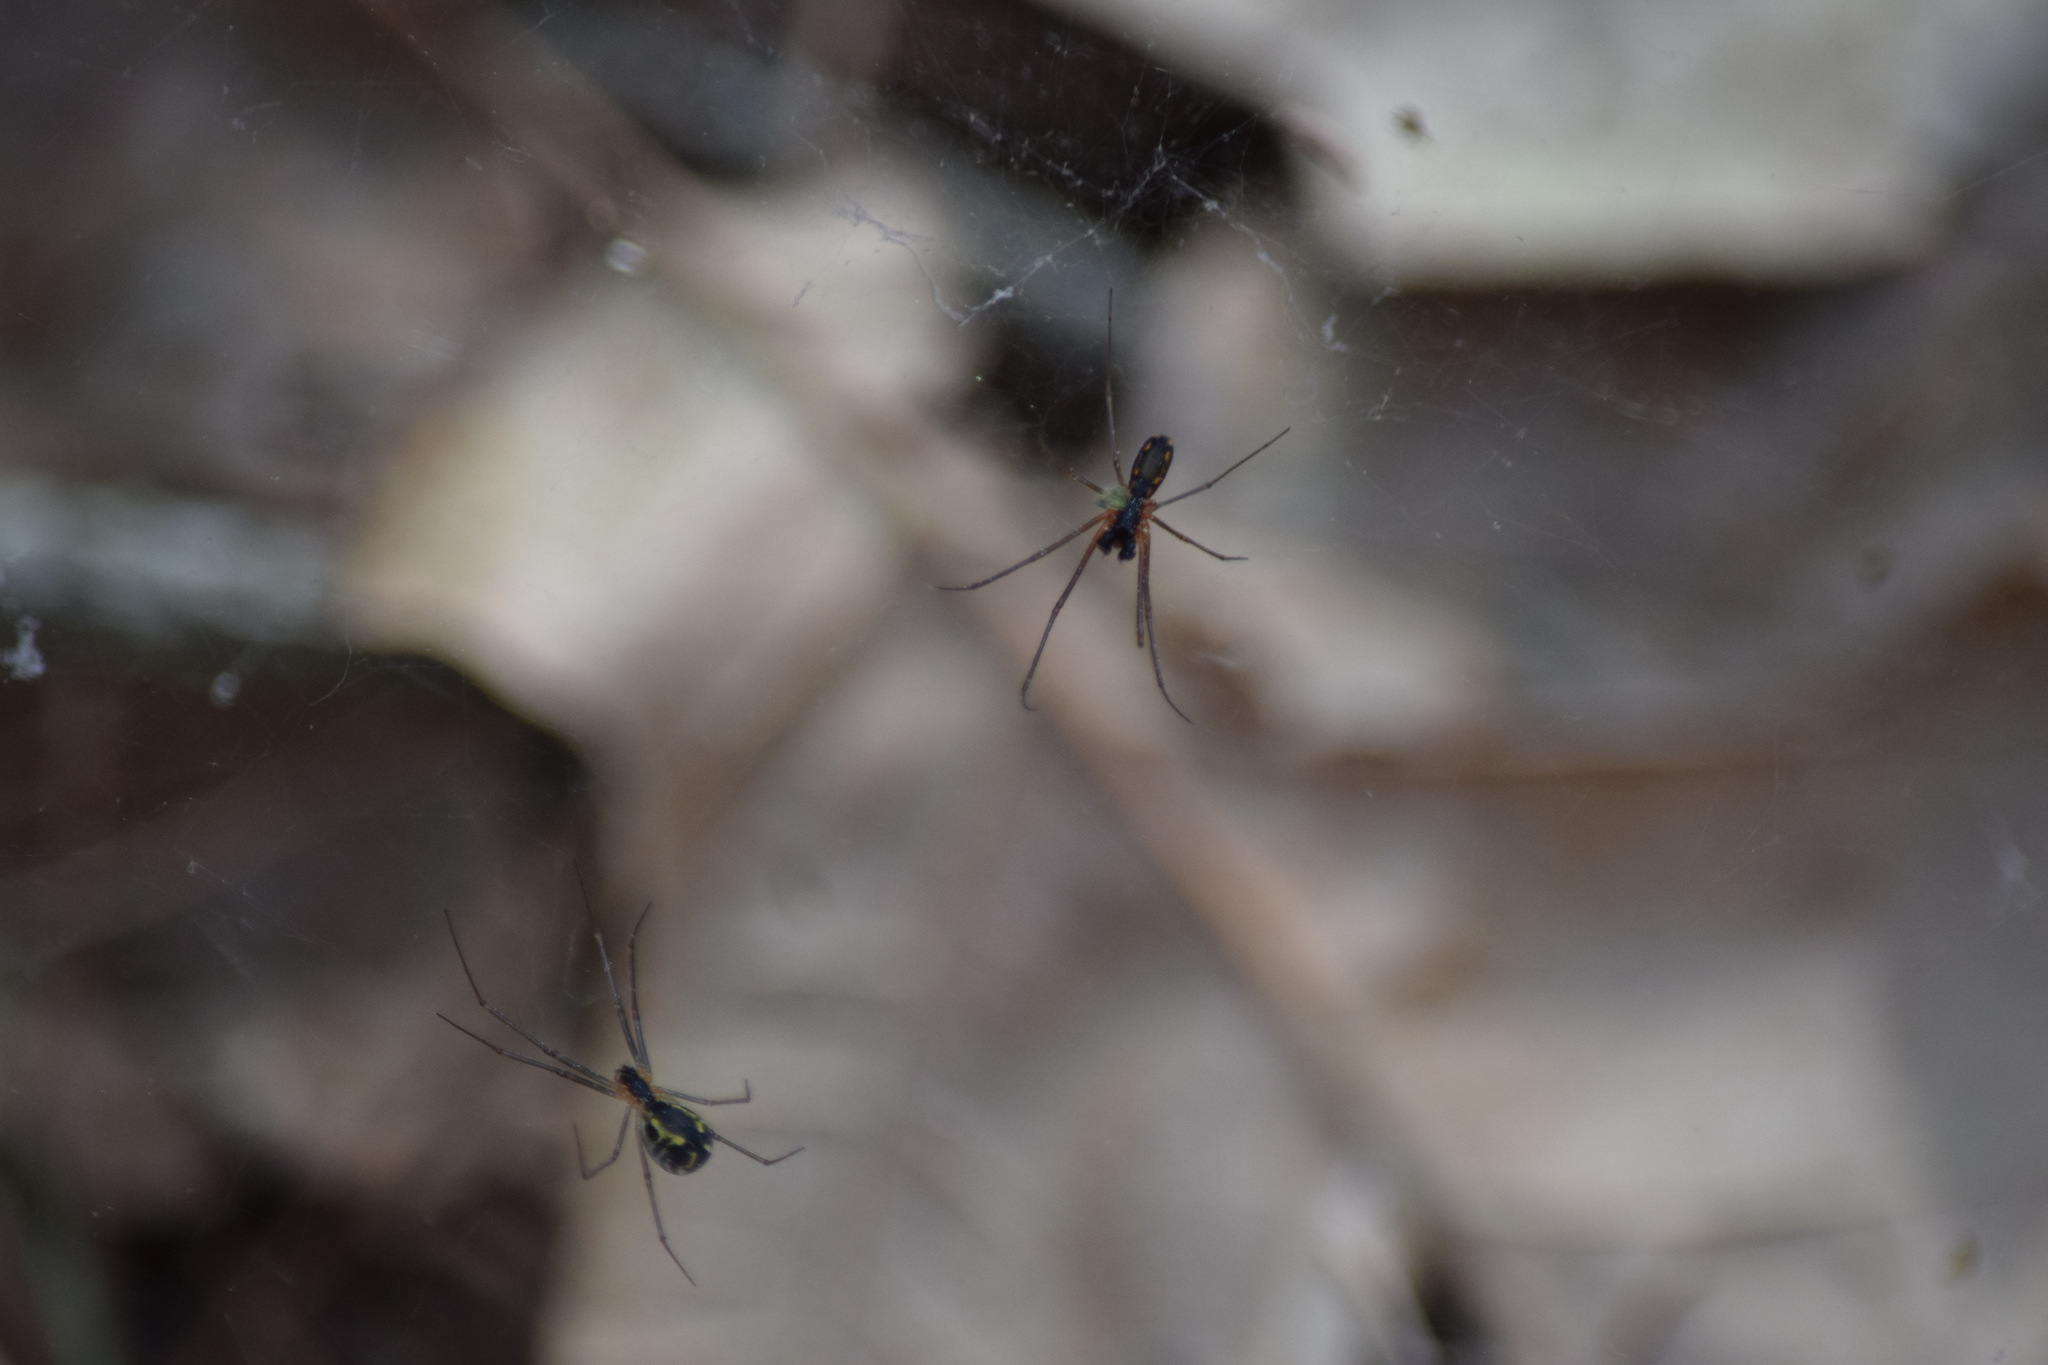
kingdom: Animalia
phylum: Arthropoda
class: Arachnida
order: Araneae
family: Linyphiidae
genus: Neriene
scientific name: Neriene radiata
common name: Filmy dome spider
